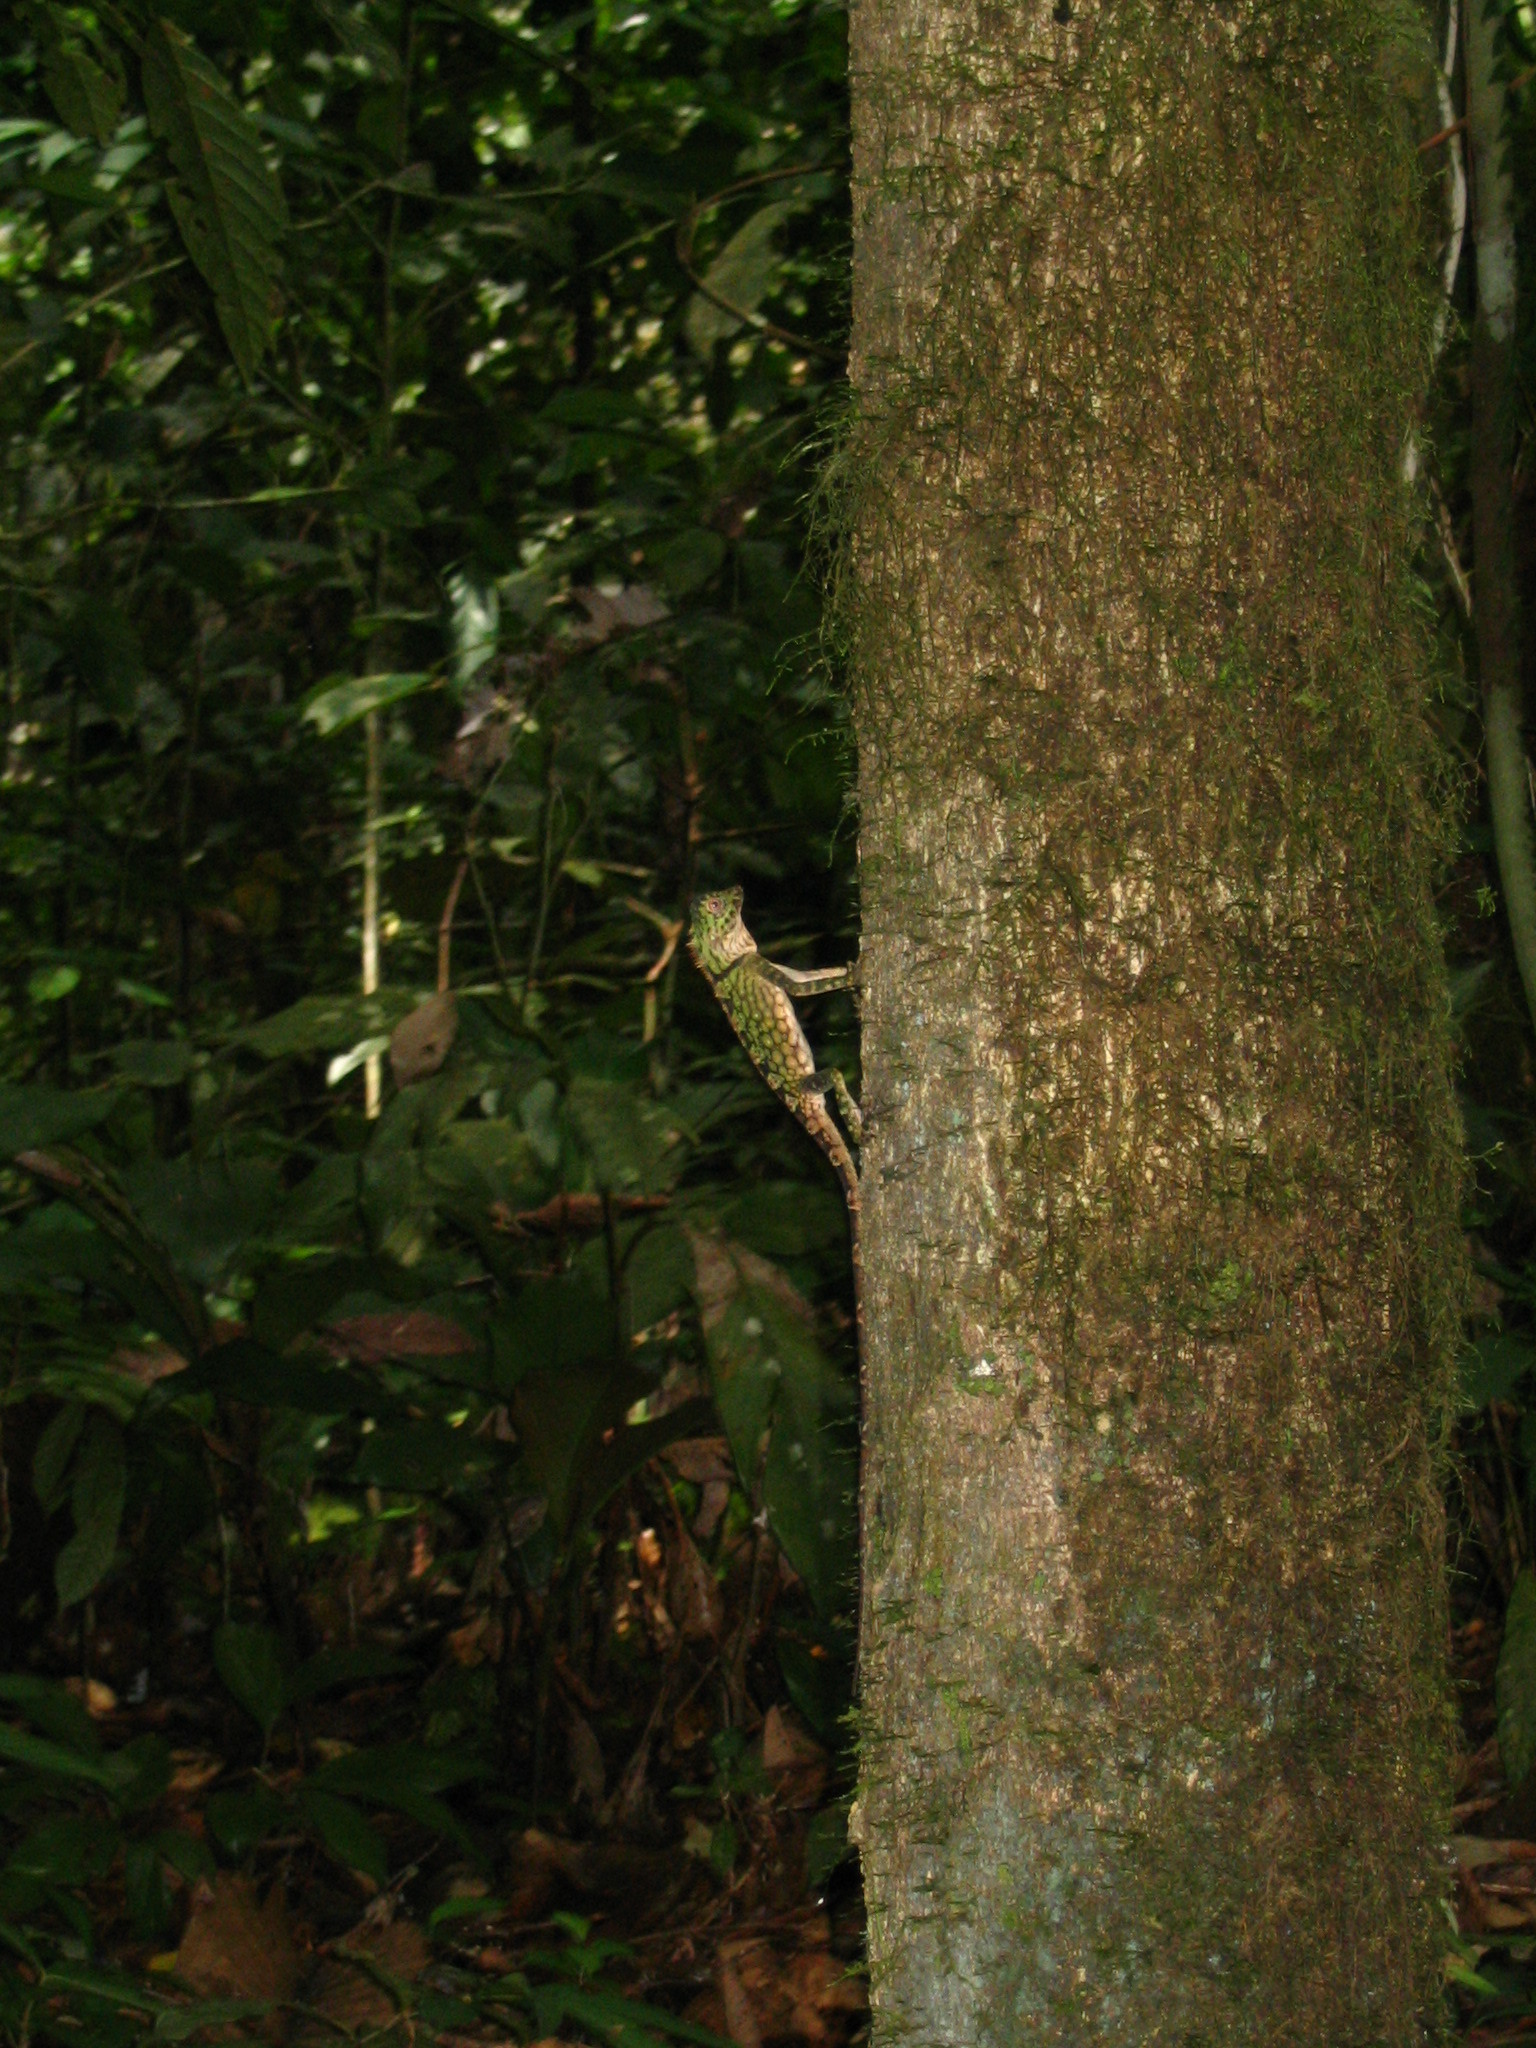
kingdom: Animalia
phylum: Chordata
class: Squamata
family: Agamidae
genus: Gonocephalus
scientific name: Gonocephalus bornensis
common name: Borneo forest dragon
